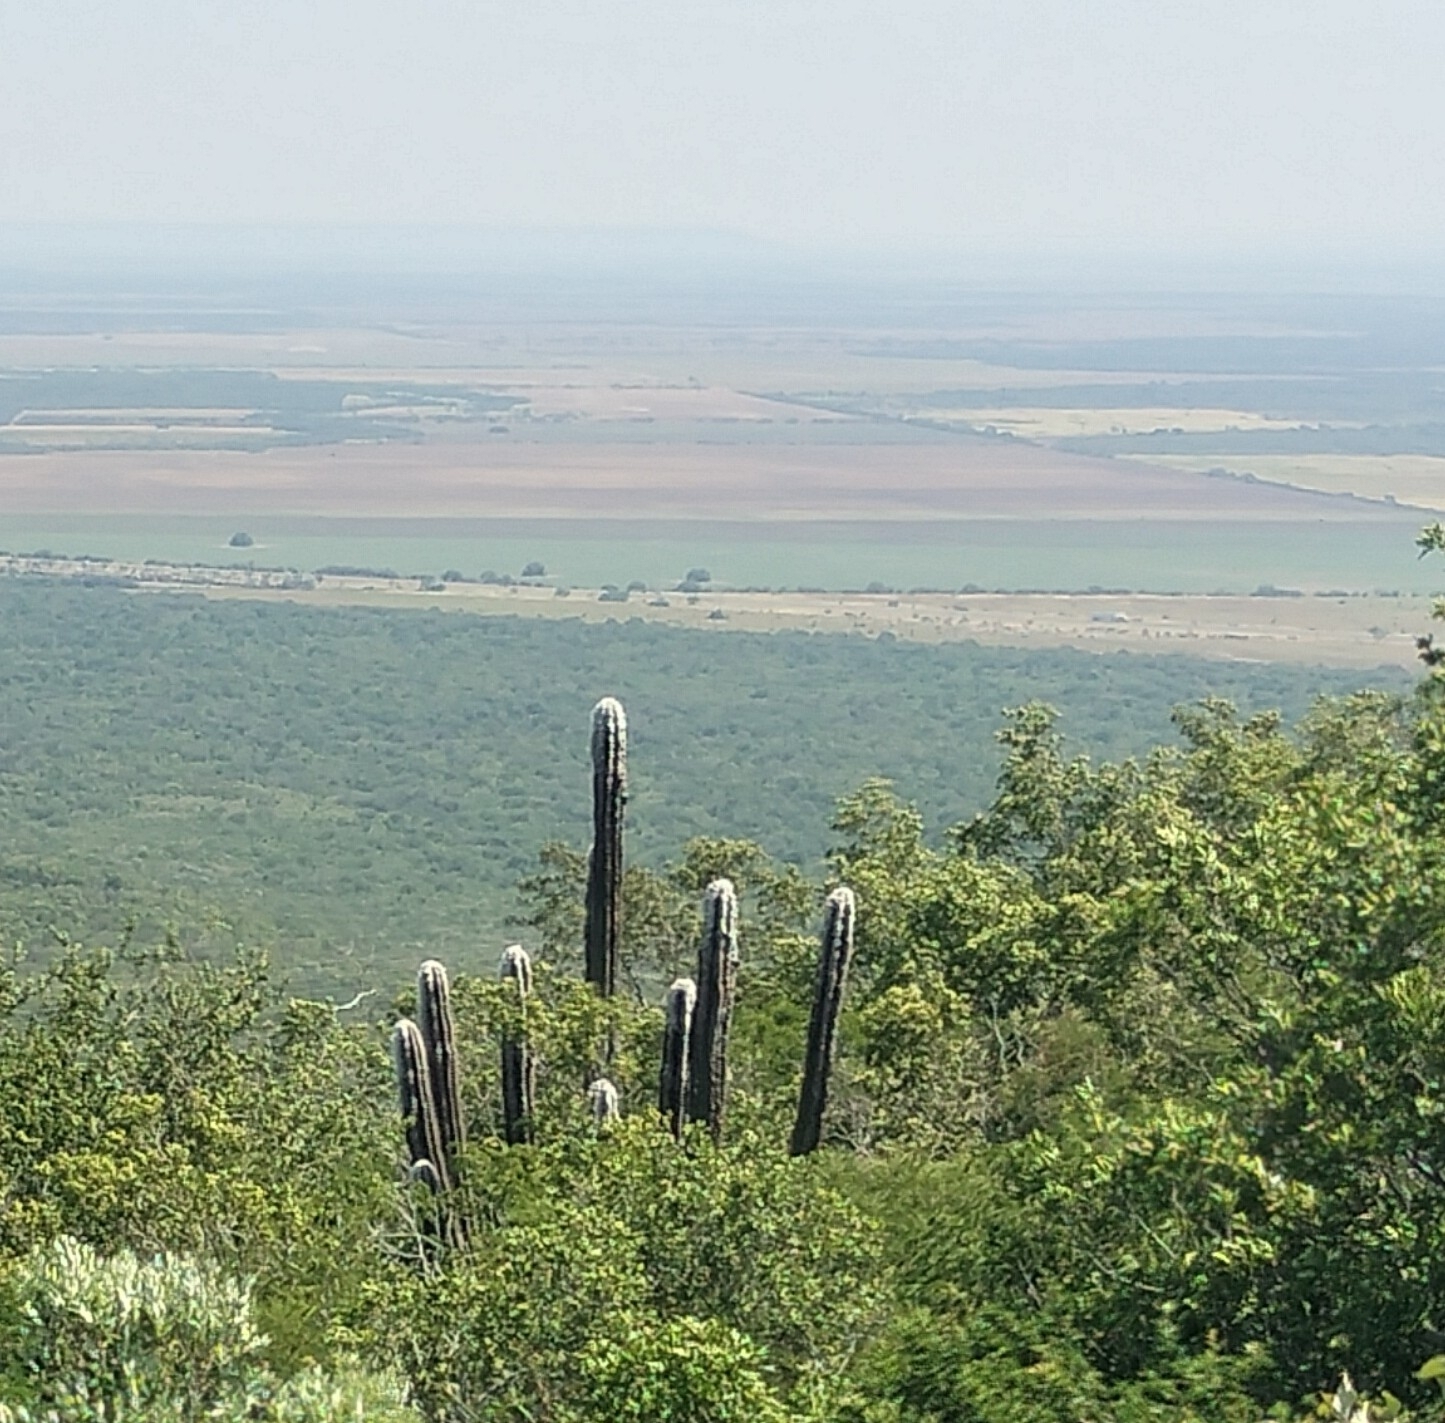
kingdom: Plantae
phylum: Tracheophyta
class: Magnoliopsida
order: Caryophyllales
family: Cactaceae
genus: Pilosocereus
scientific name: Pilosocereus leucocephalus
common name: Old man cactus
